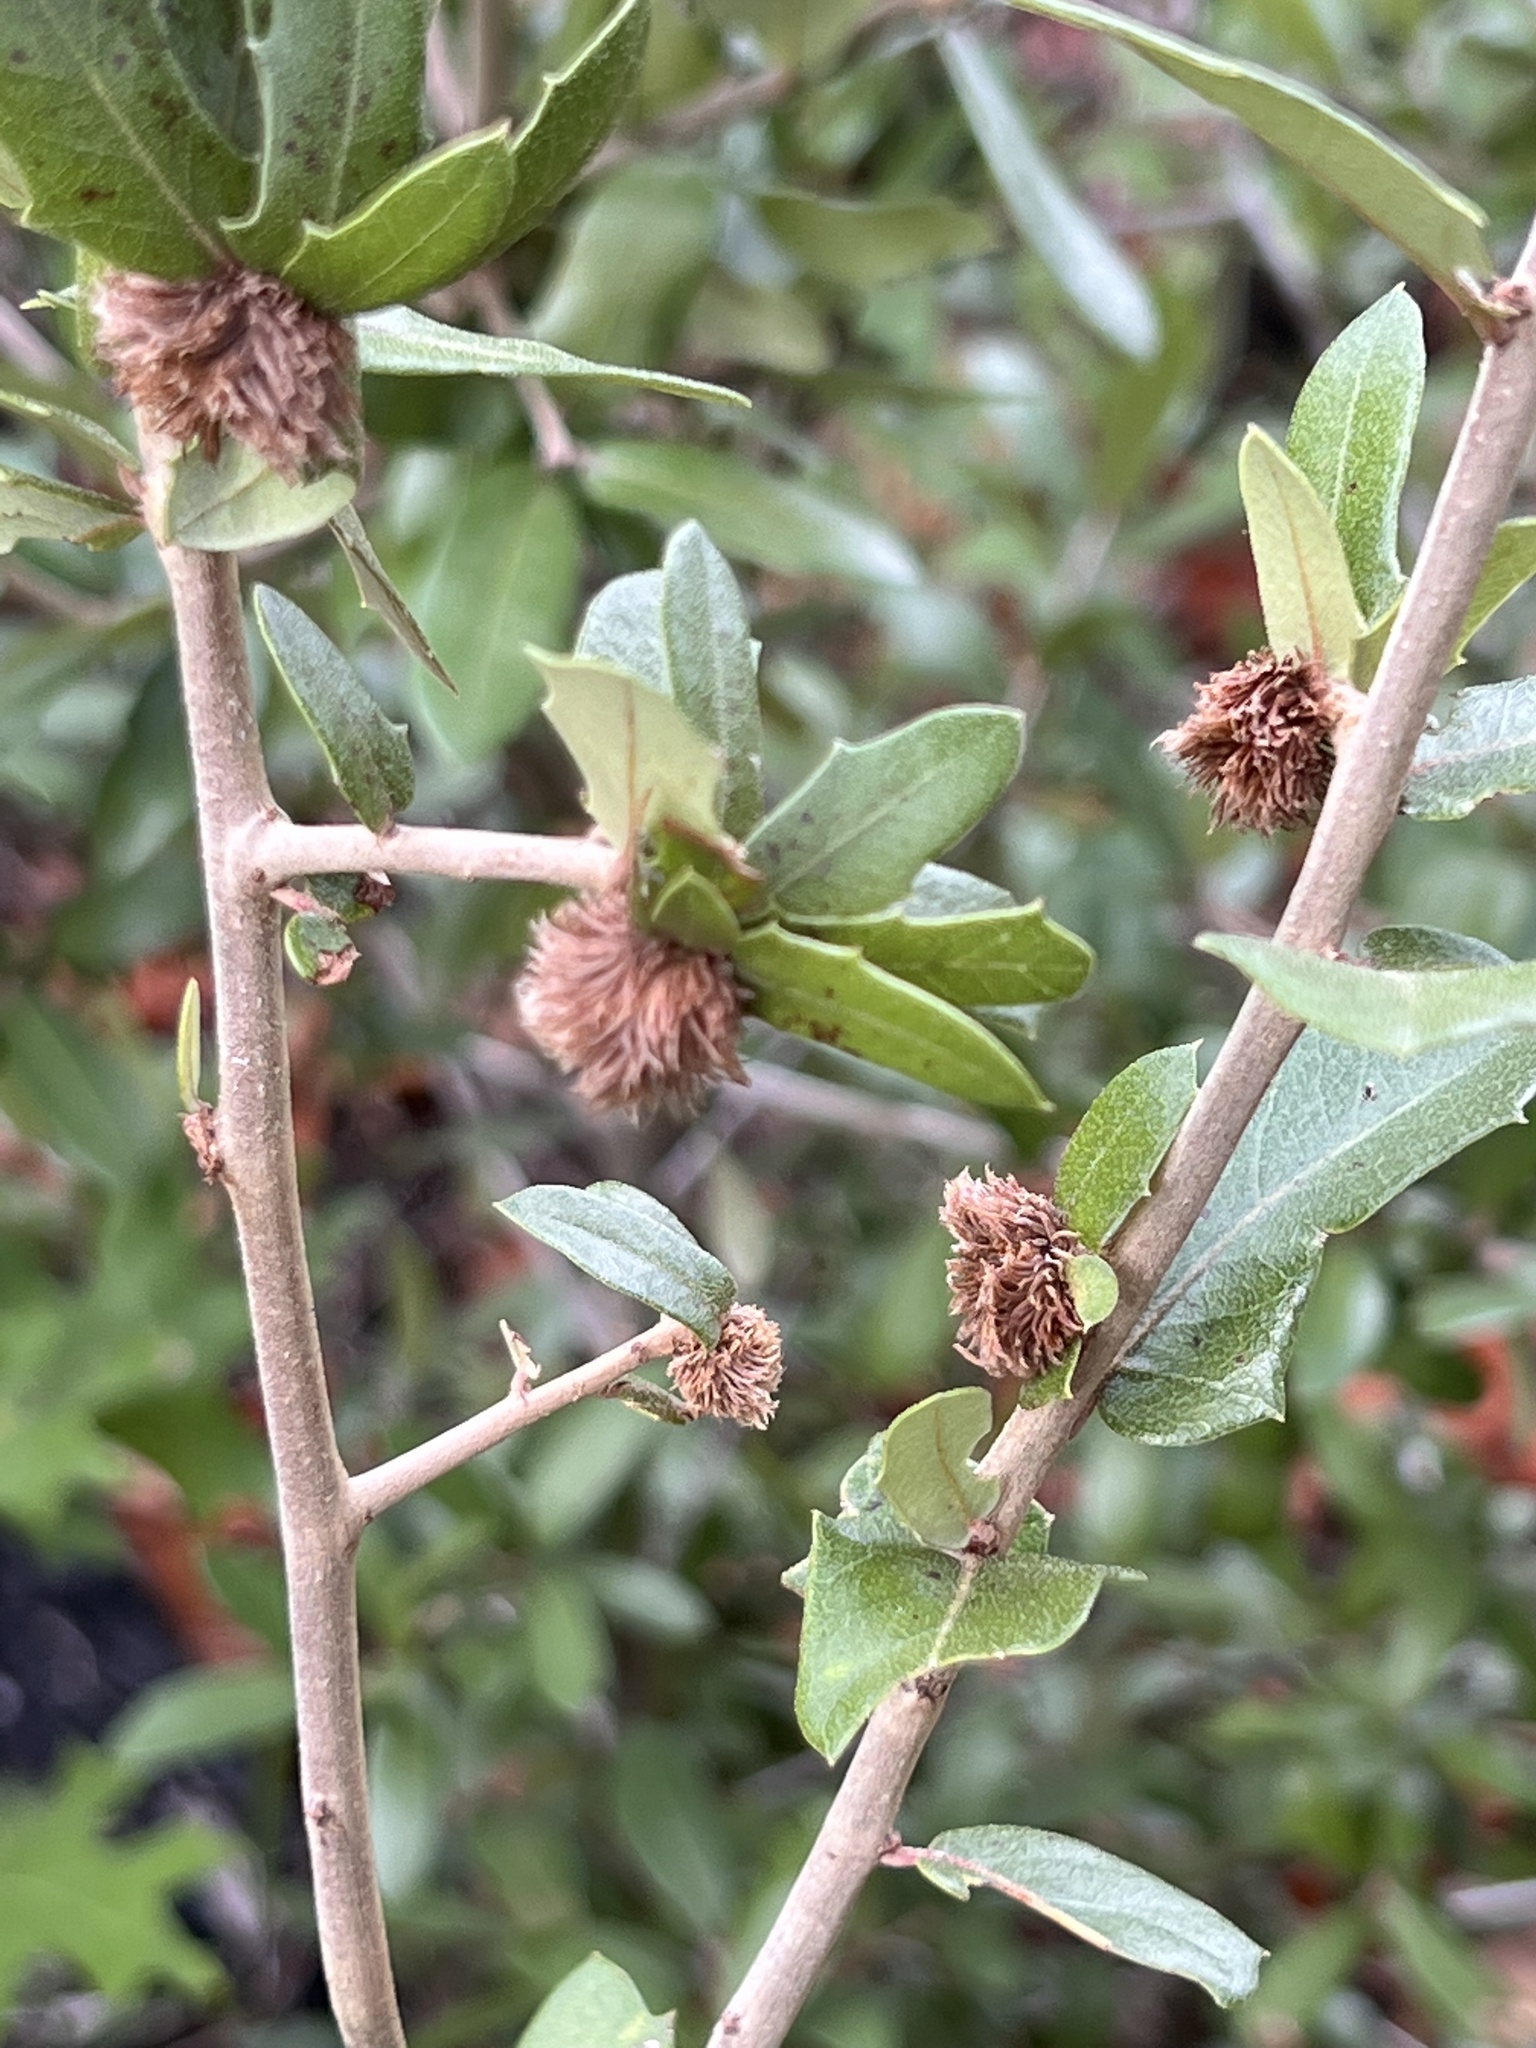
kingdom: Animalia
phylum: Arthropoda
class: Insecta
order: Hymenoptera
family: Cynipidae
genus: Andricus
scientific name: Andricus quercusfoliatus
